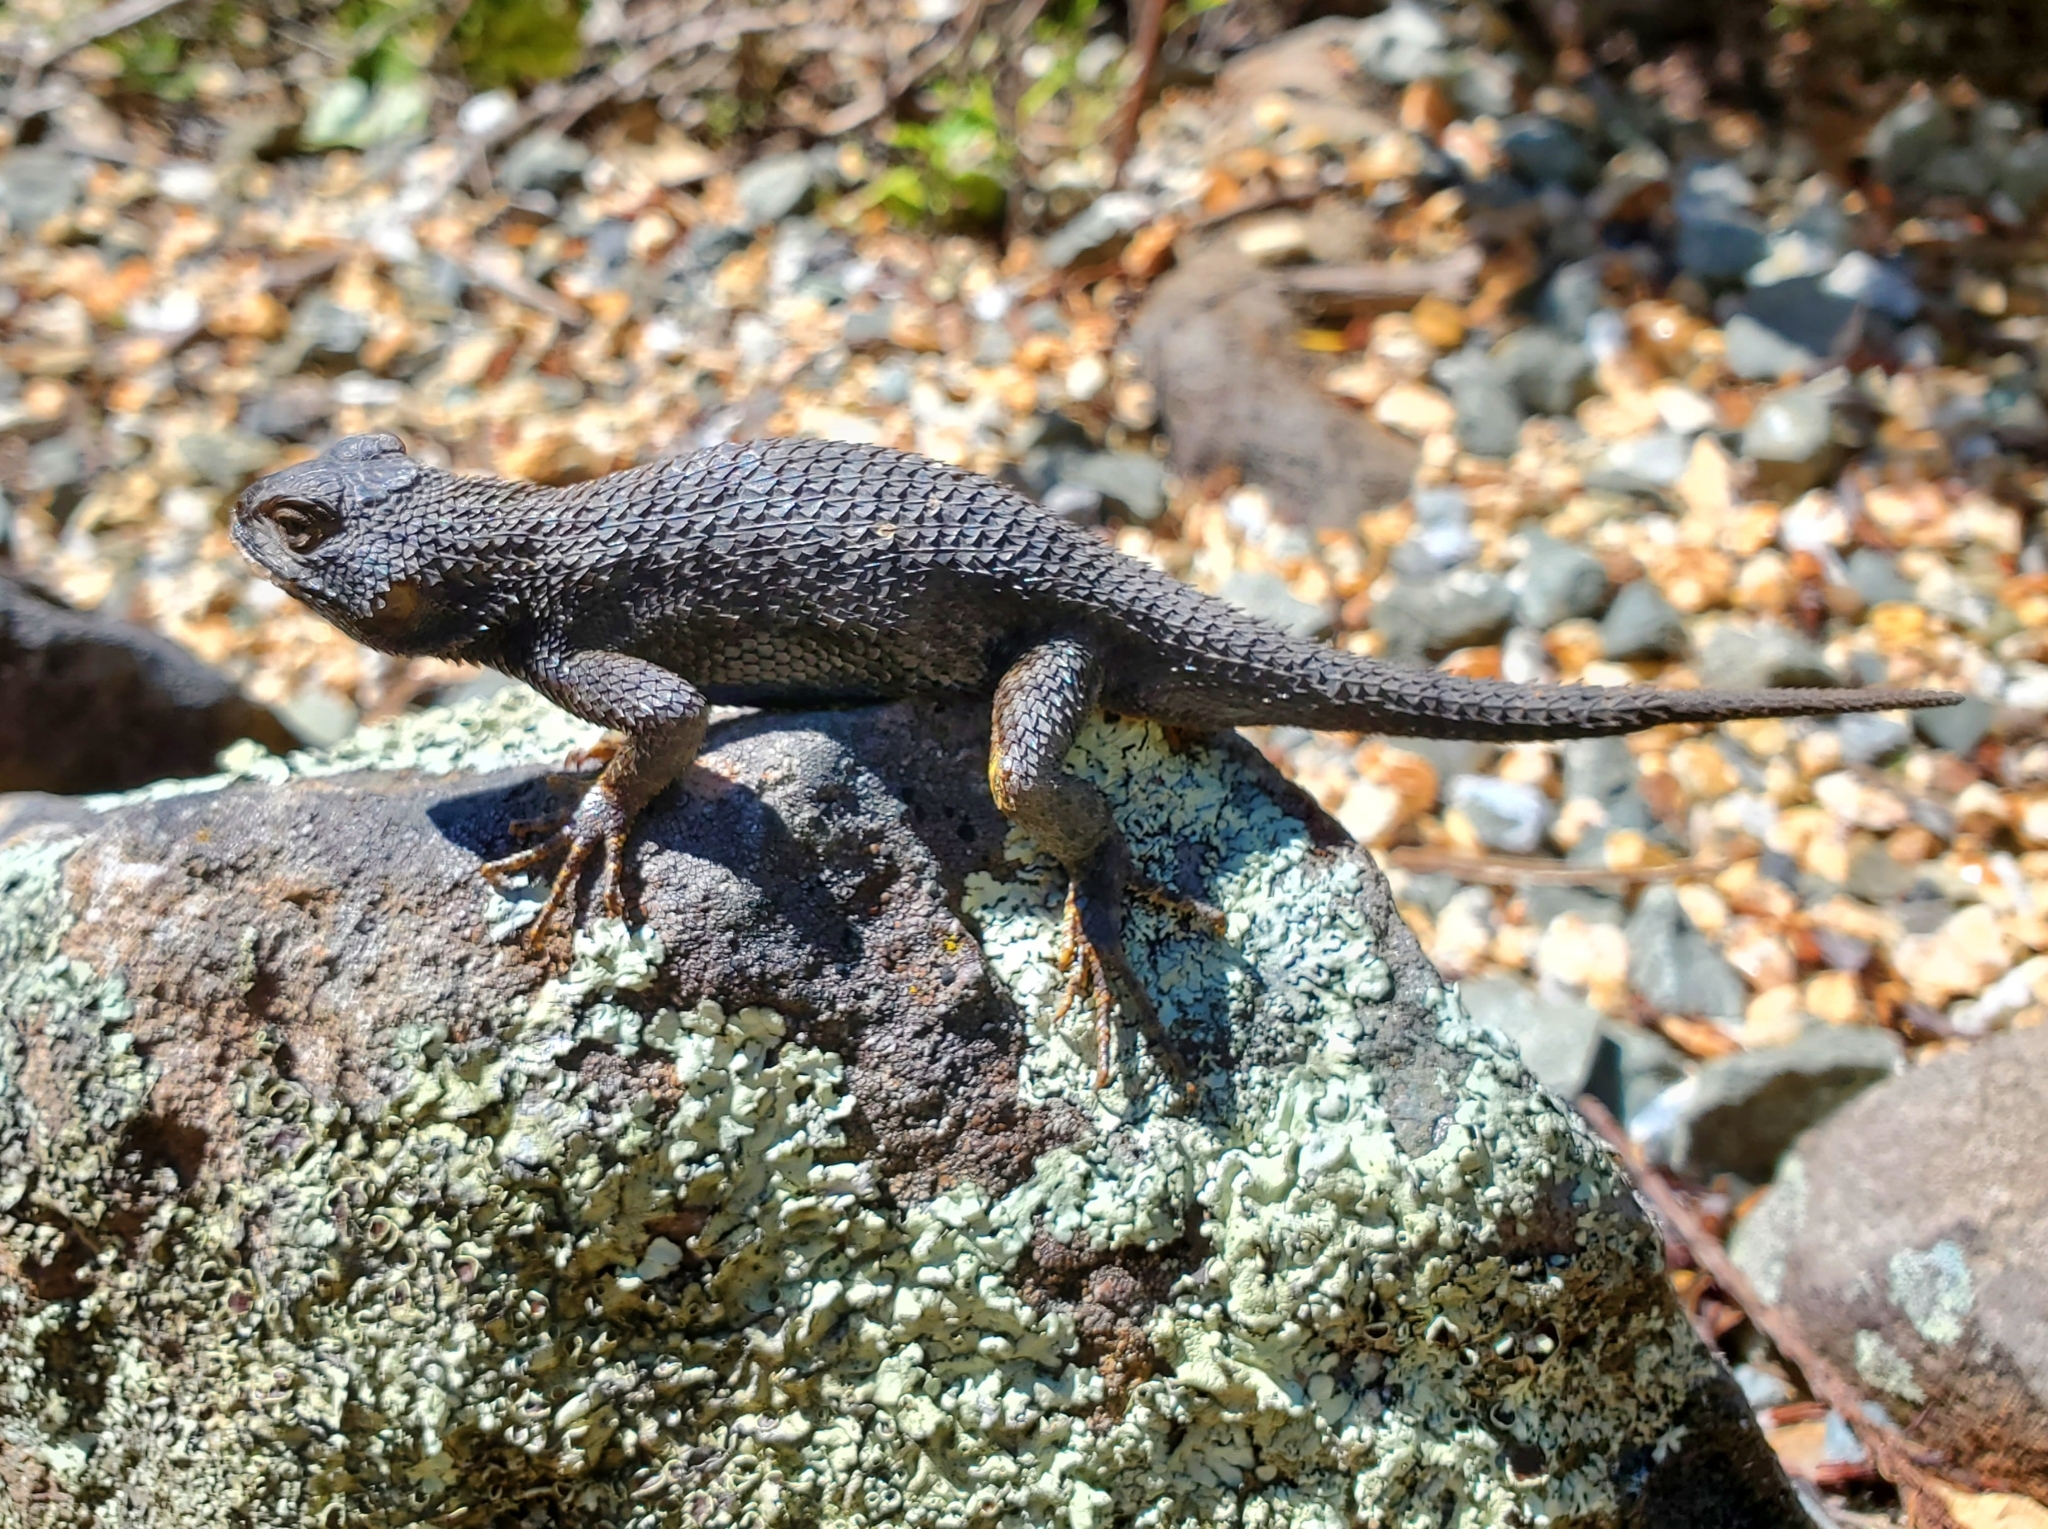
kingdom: Animalia
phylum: Chordata
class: Squamata
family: Phrynosomatidae
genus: Sceloporus
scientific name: Sceloporus occidentalis
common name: Western fence lizard
